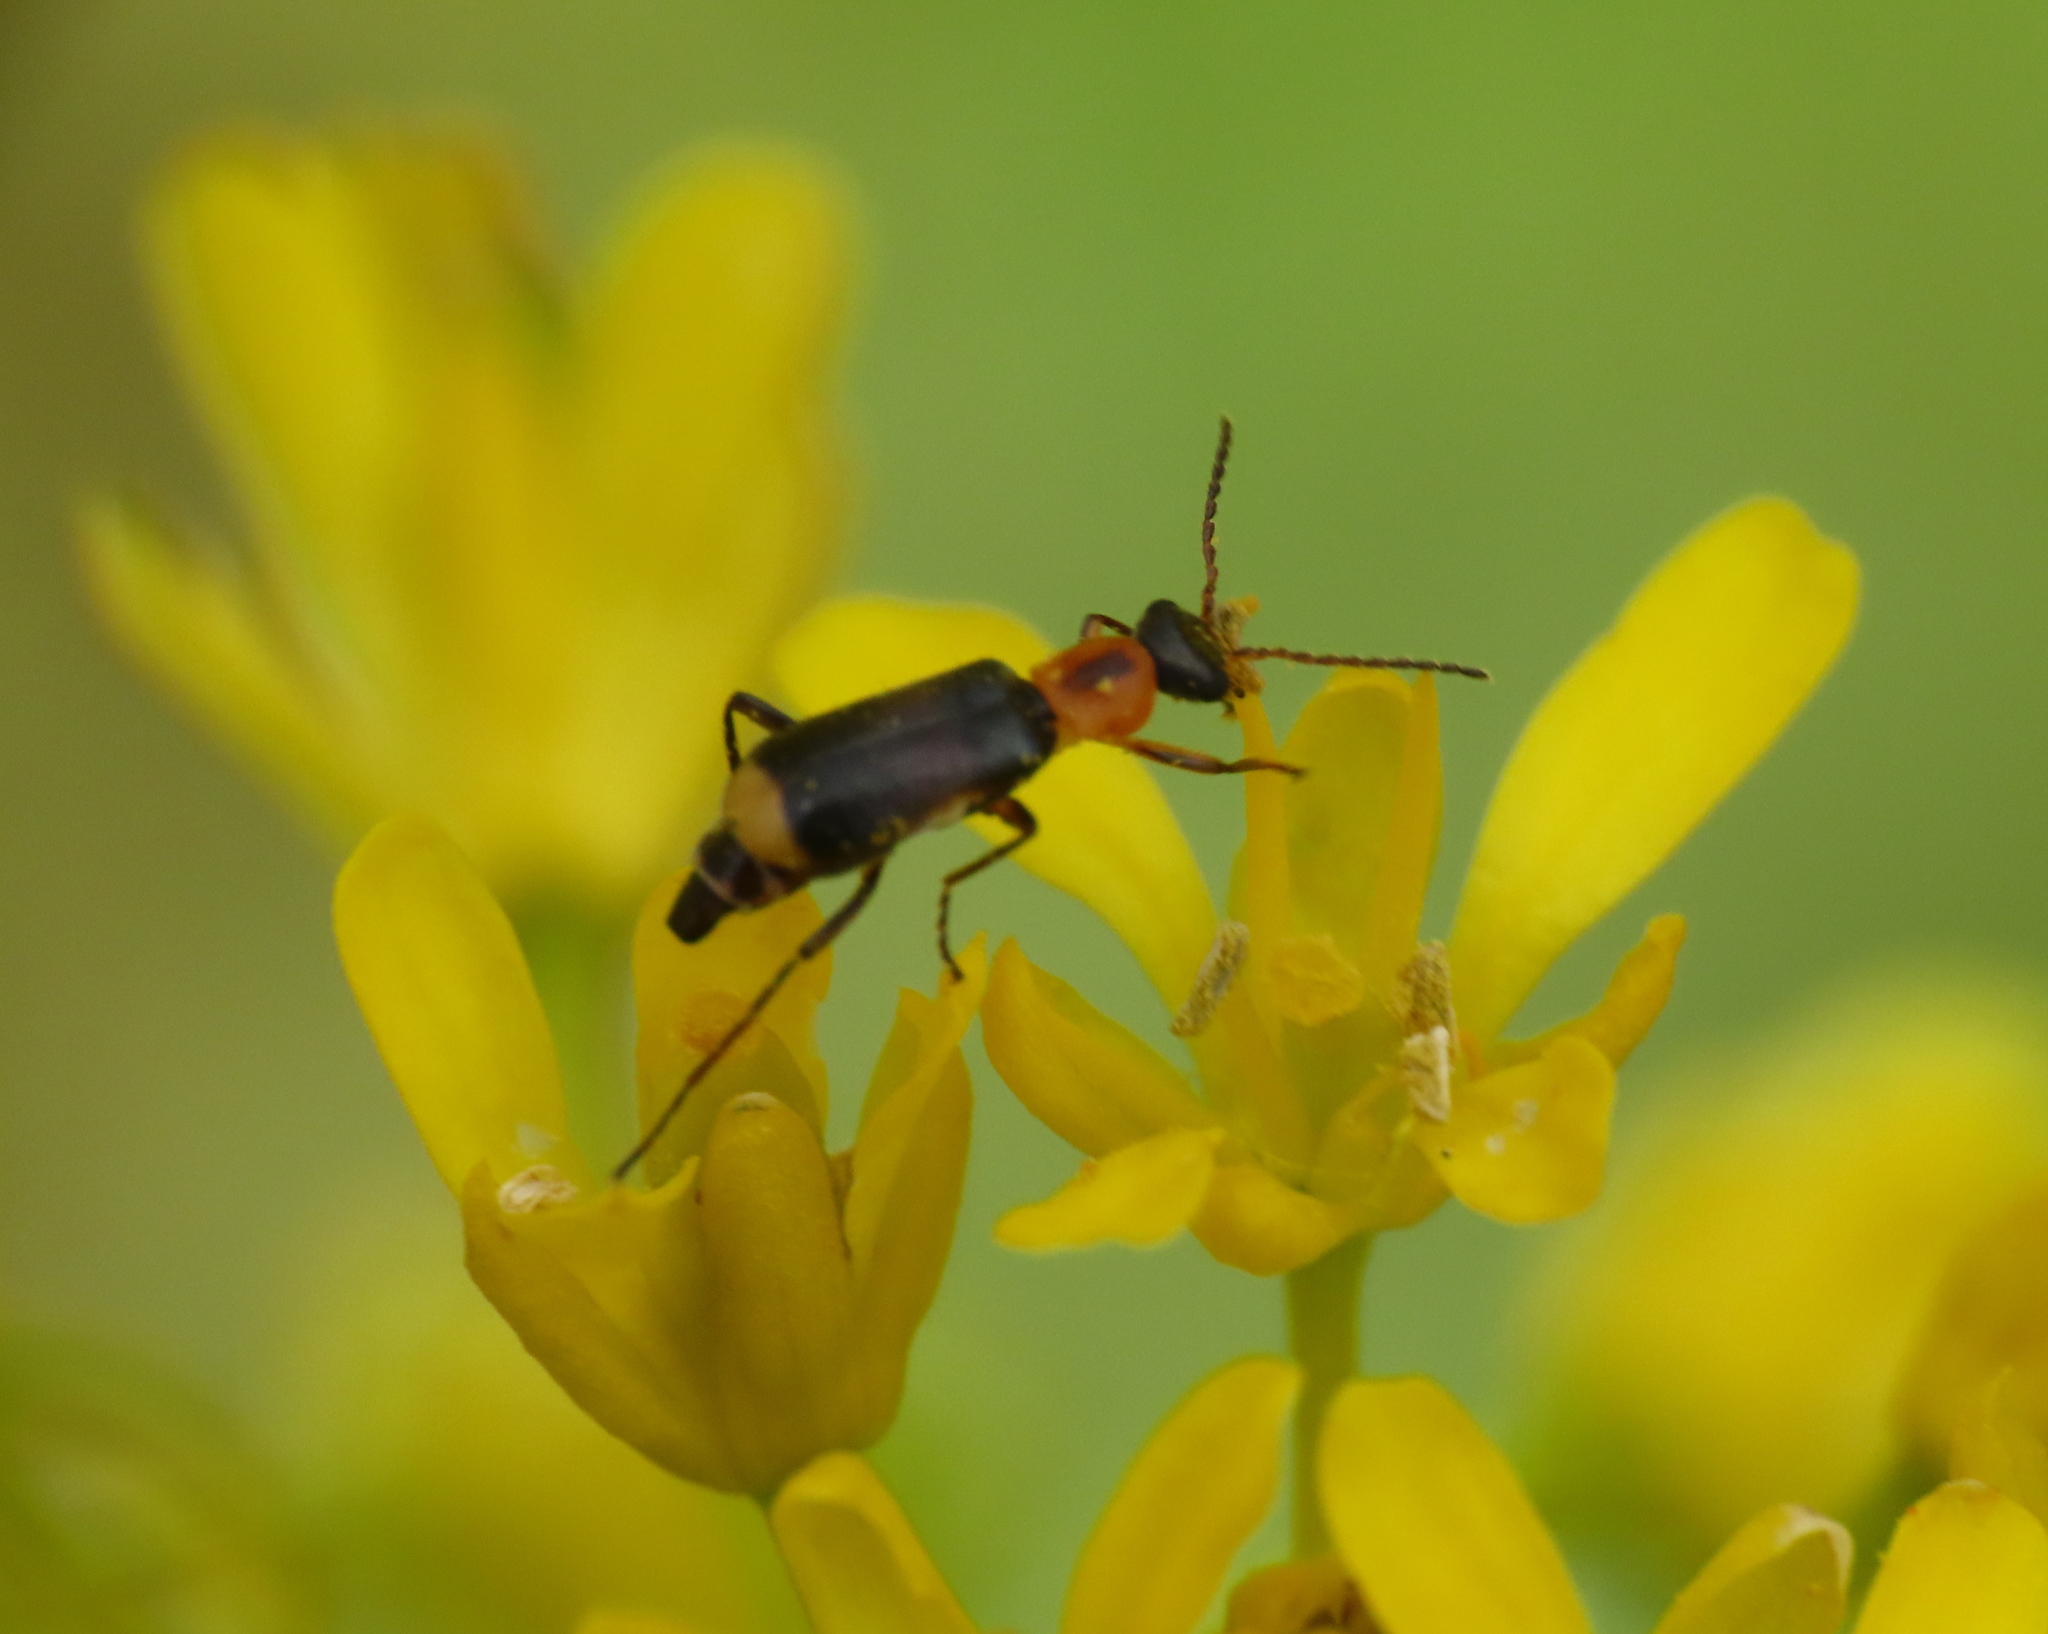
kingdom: Animalia
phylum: Arthropoda
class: Insecta
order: Coleoptera
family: Malachiidae
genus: Attalus
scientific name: Attalus minimus
